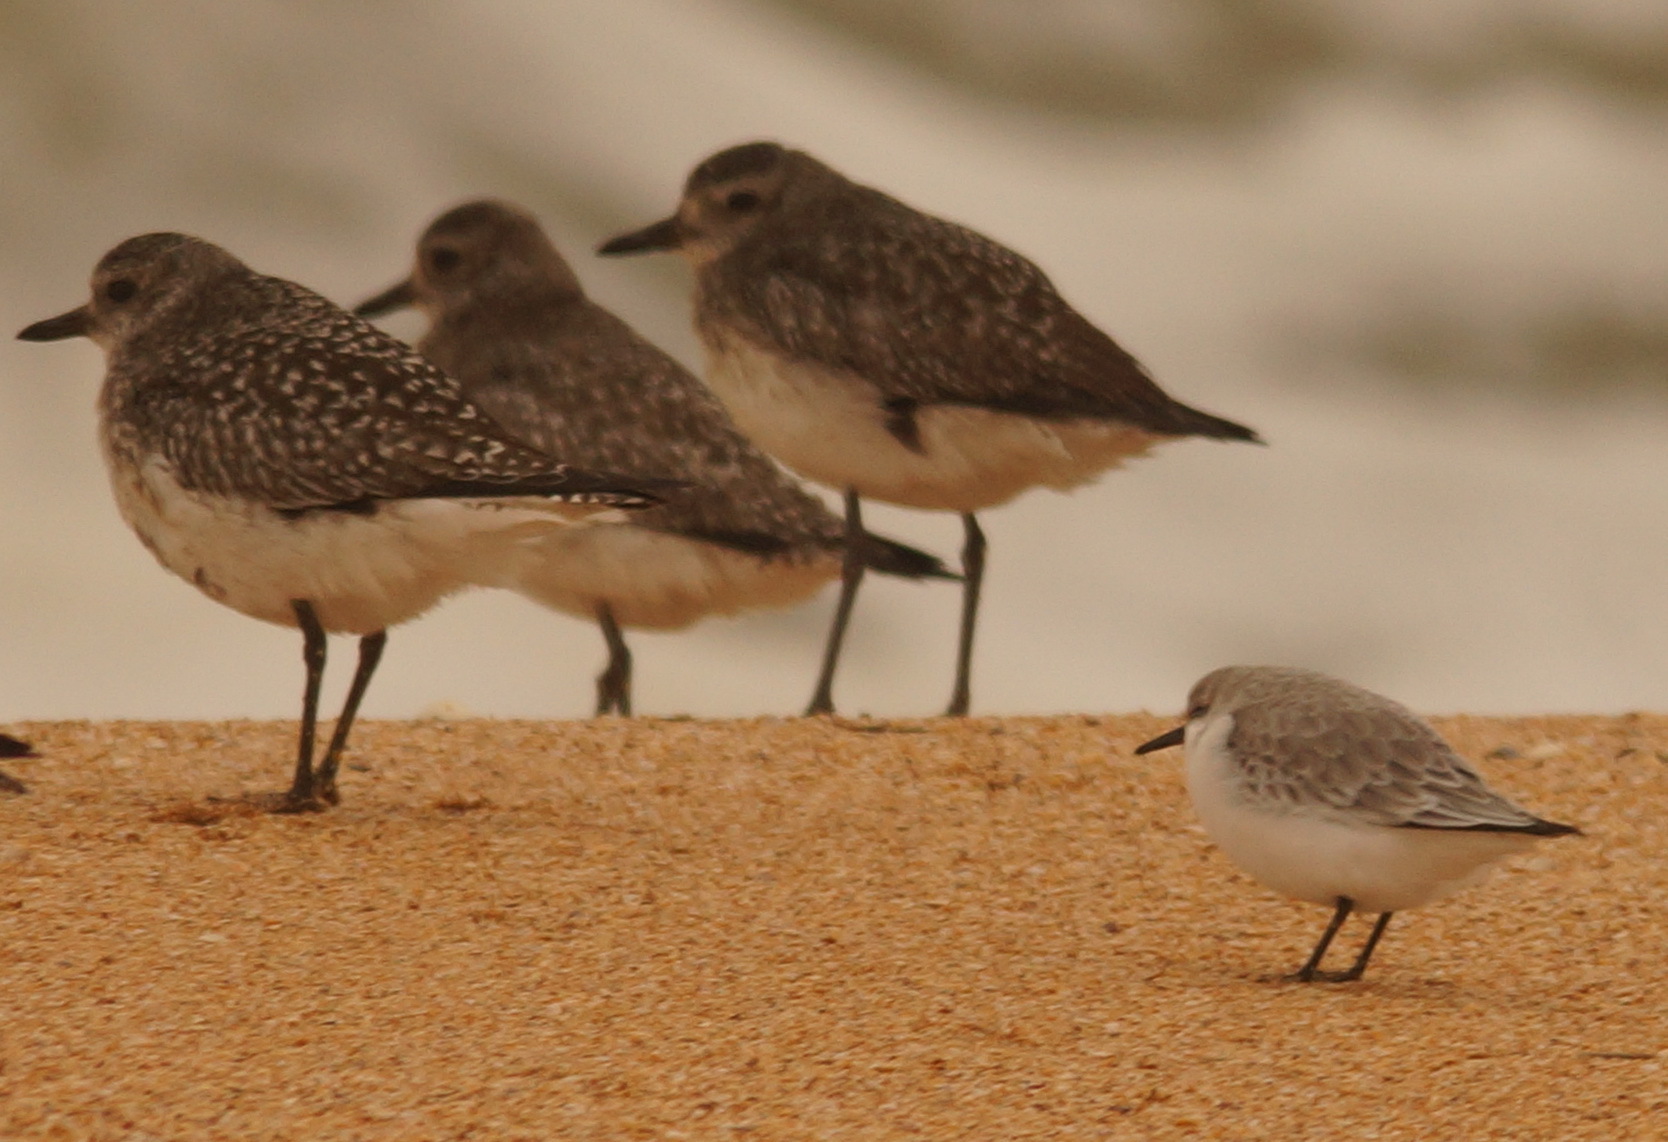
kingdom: Animalia
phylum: Chordata
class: Aves
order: Charadriiformes
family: Charadriidae
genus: Pluvialis
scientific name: Pluvialis squatarola
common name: Grey plover
